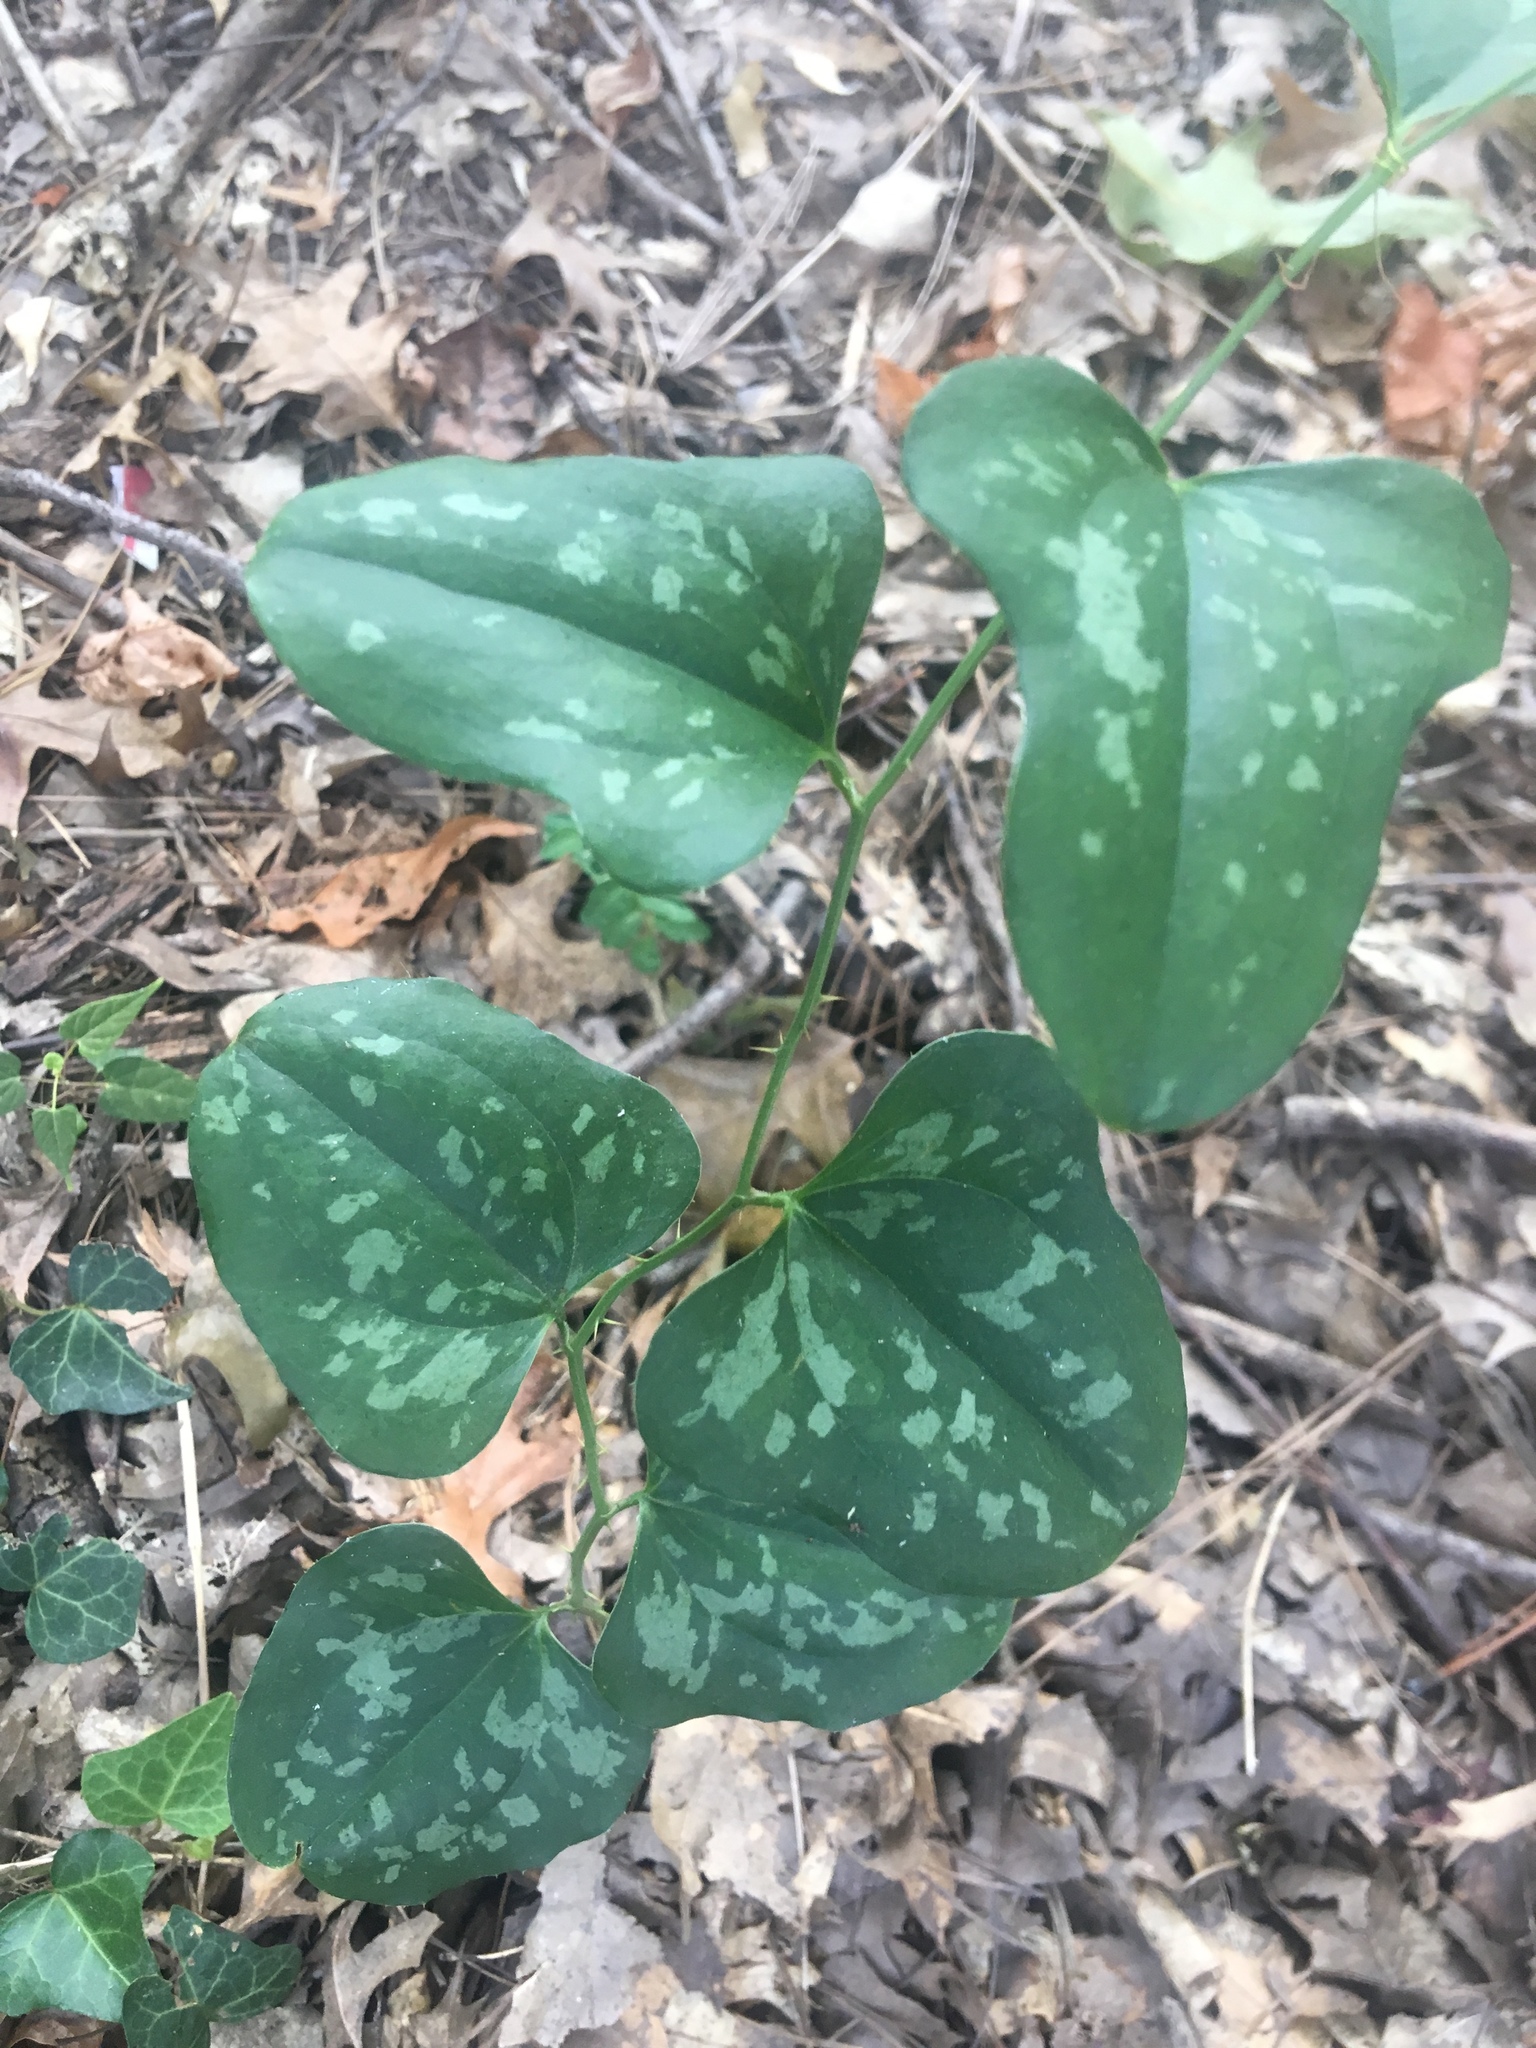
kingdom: Plantae
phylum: Tracheophyta
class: Liliopsida
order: Liliales
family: Smilacaceae
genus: Smilax
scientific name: Smilax bona-nox
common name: Catbrier
